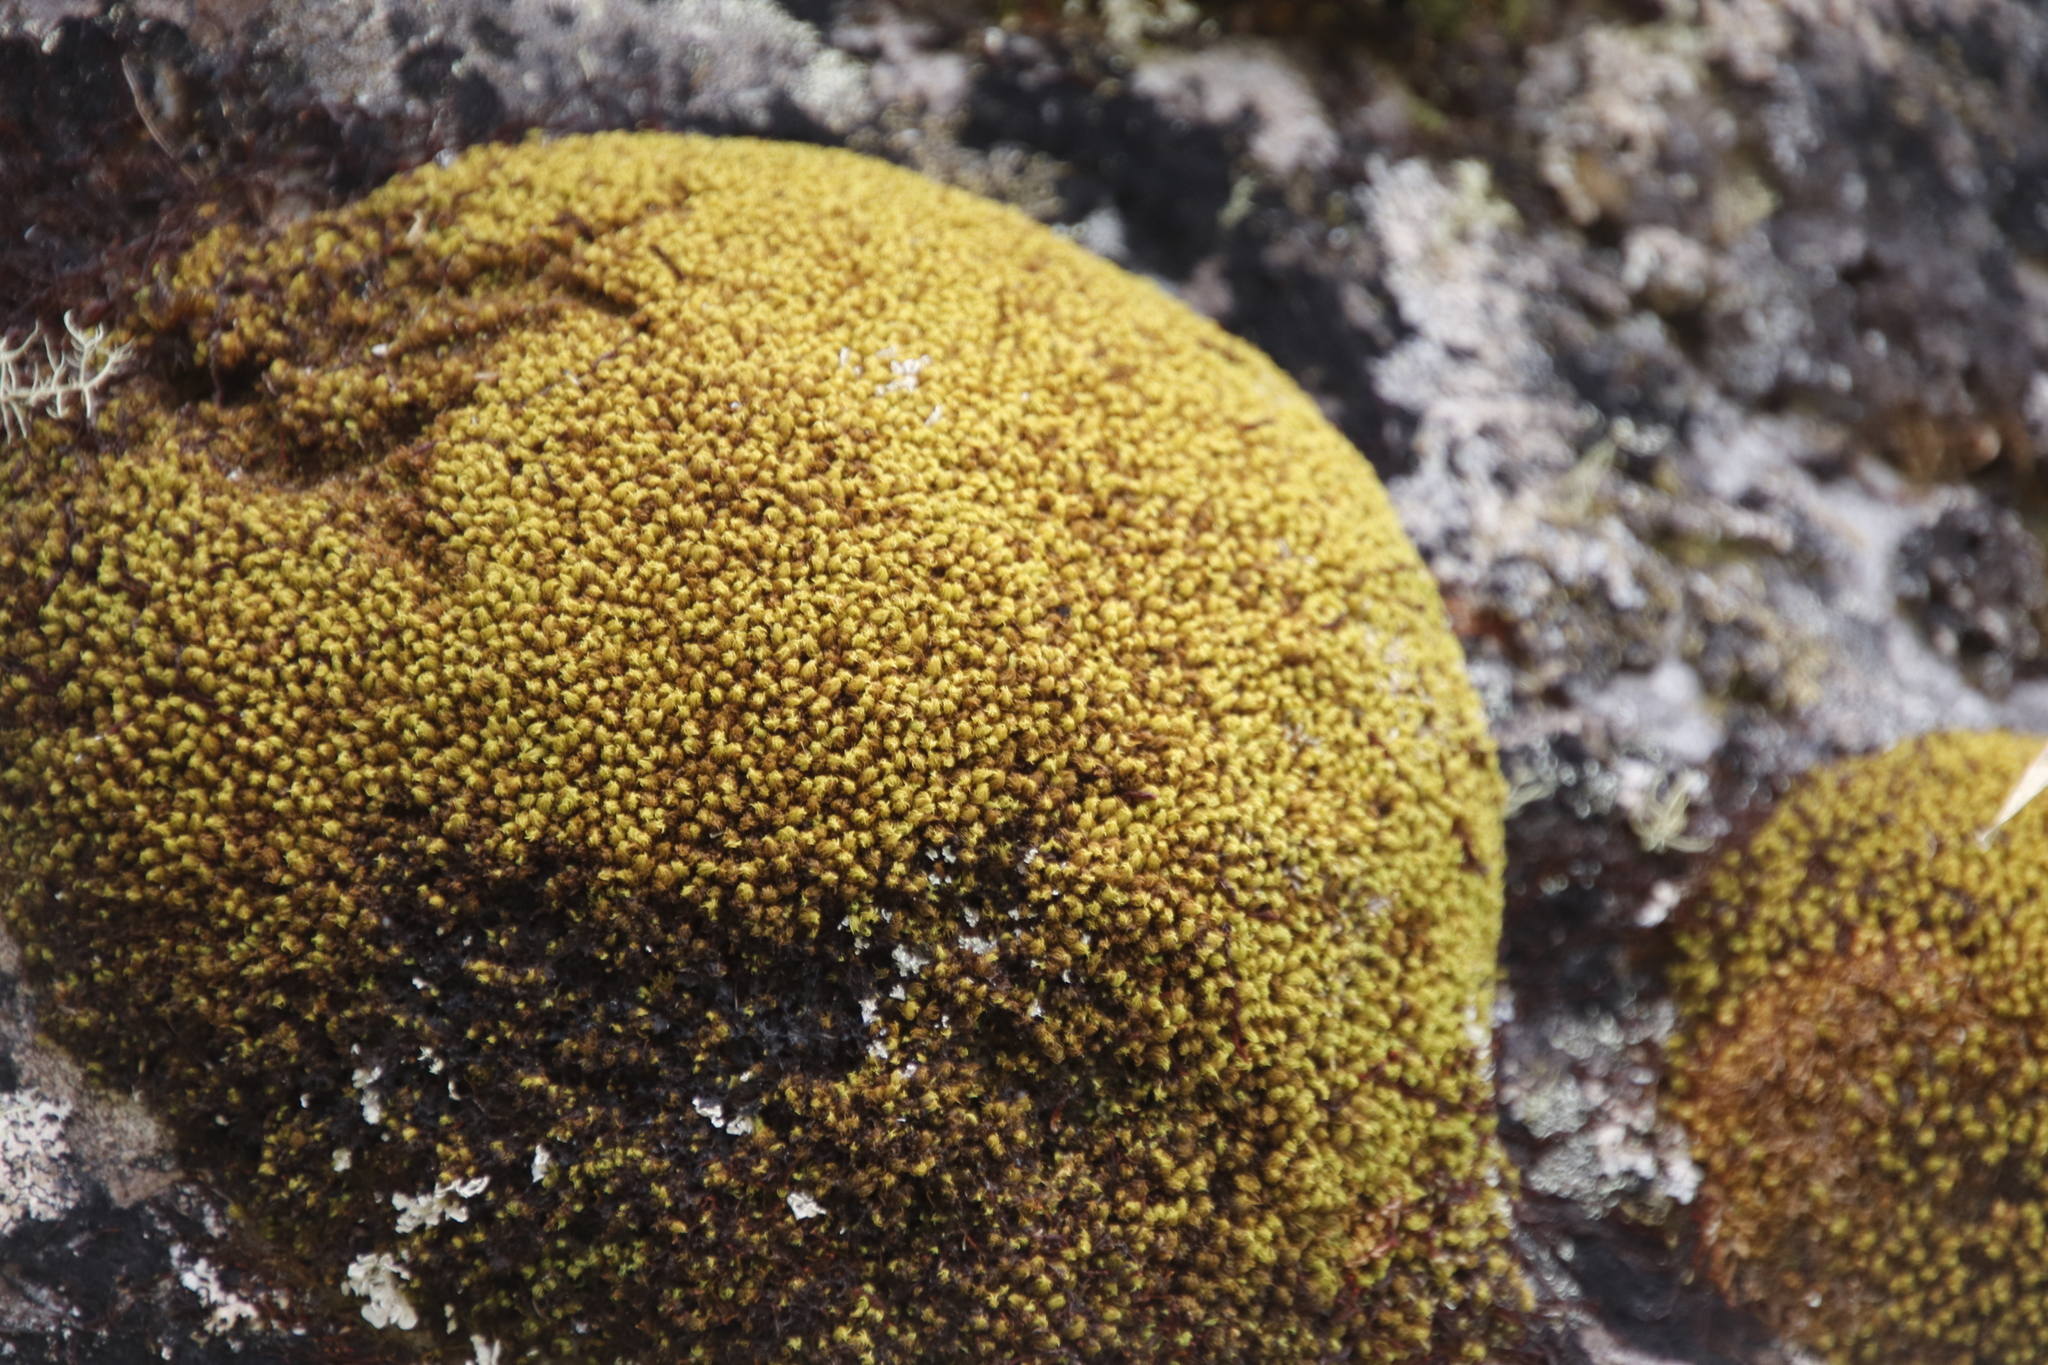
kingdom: Plantae
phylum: Bryophyta
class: Bryopsida
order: Dicranales
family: Hypodontiaceae
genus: Hypodontium
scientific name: Hypodontium pomiforme
